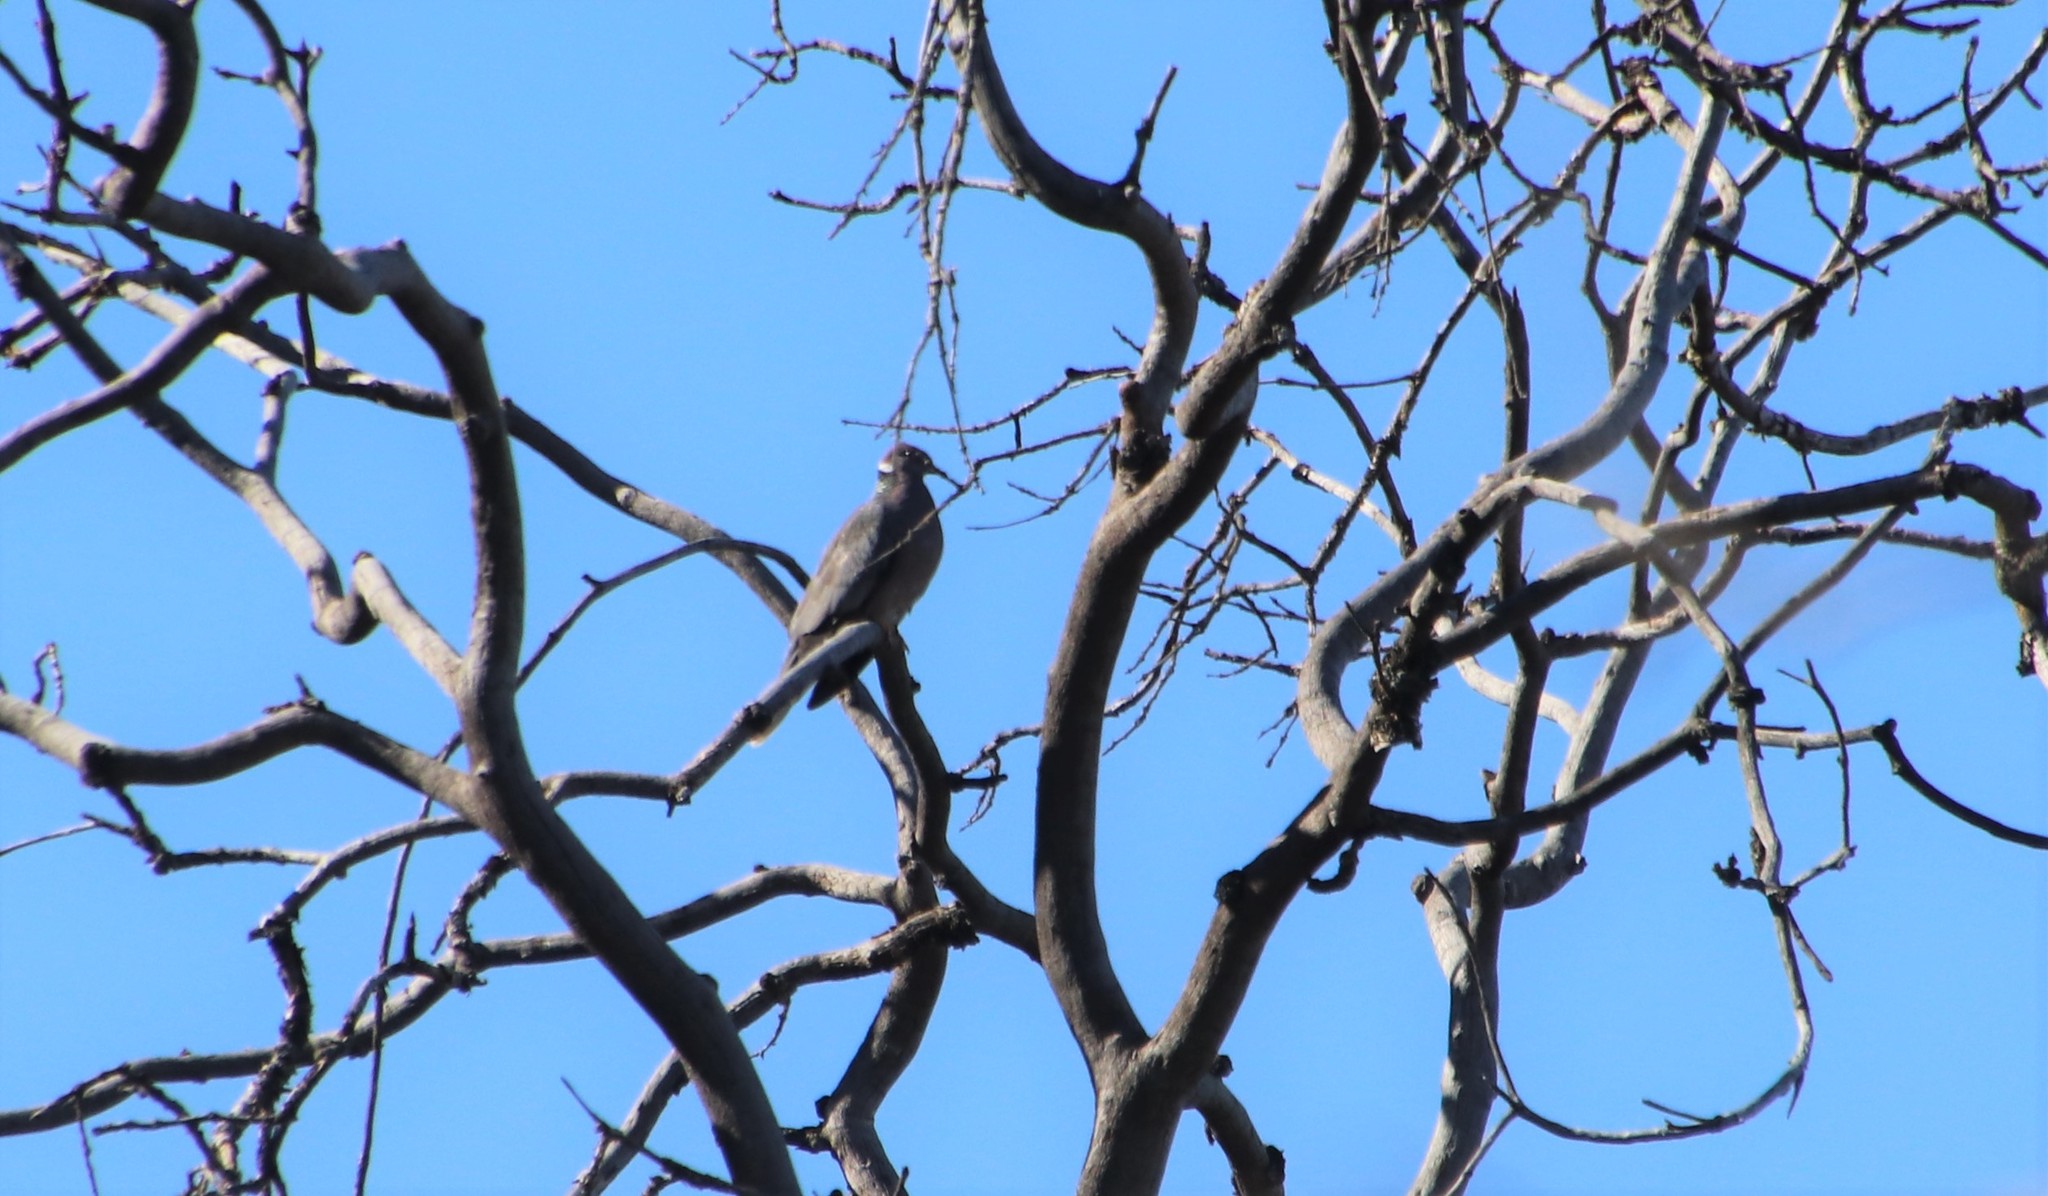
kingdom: Animalia
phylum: Chordata
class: Aves
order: Columbiformes
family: Columbidae
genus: Patagioenas
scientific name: Patagioenas fasciata
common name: Band-tailed pigeon
